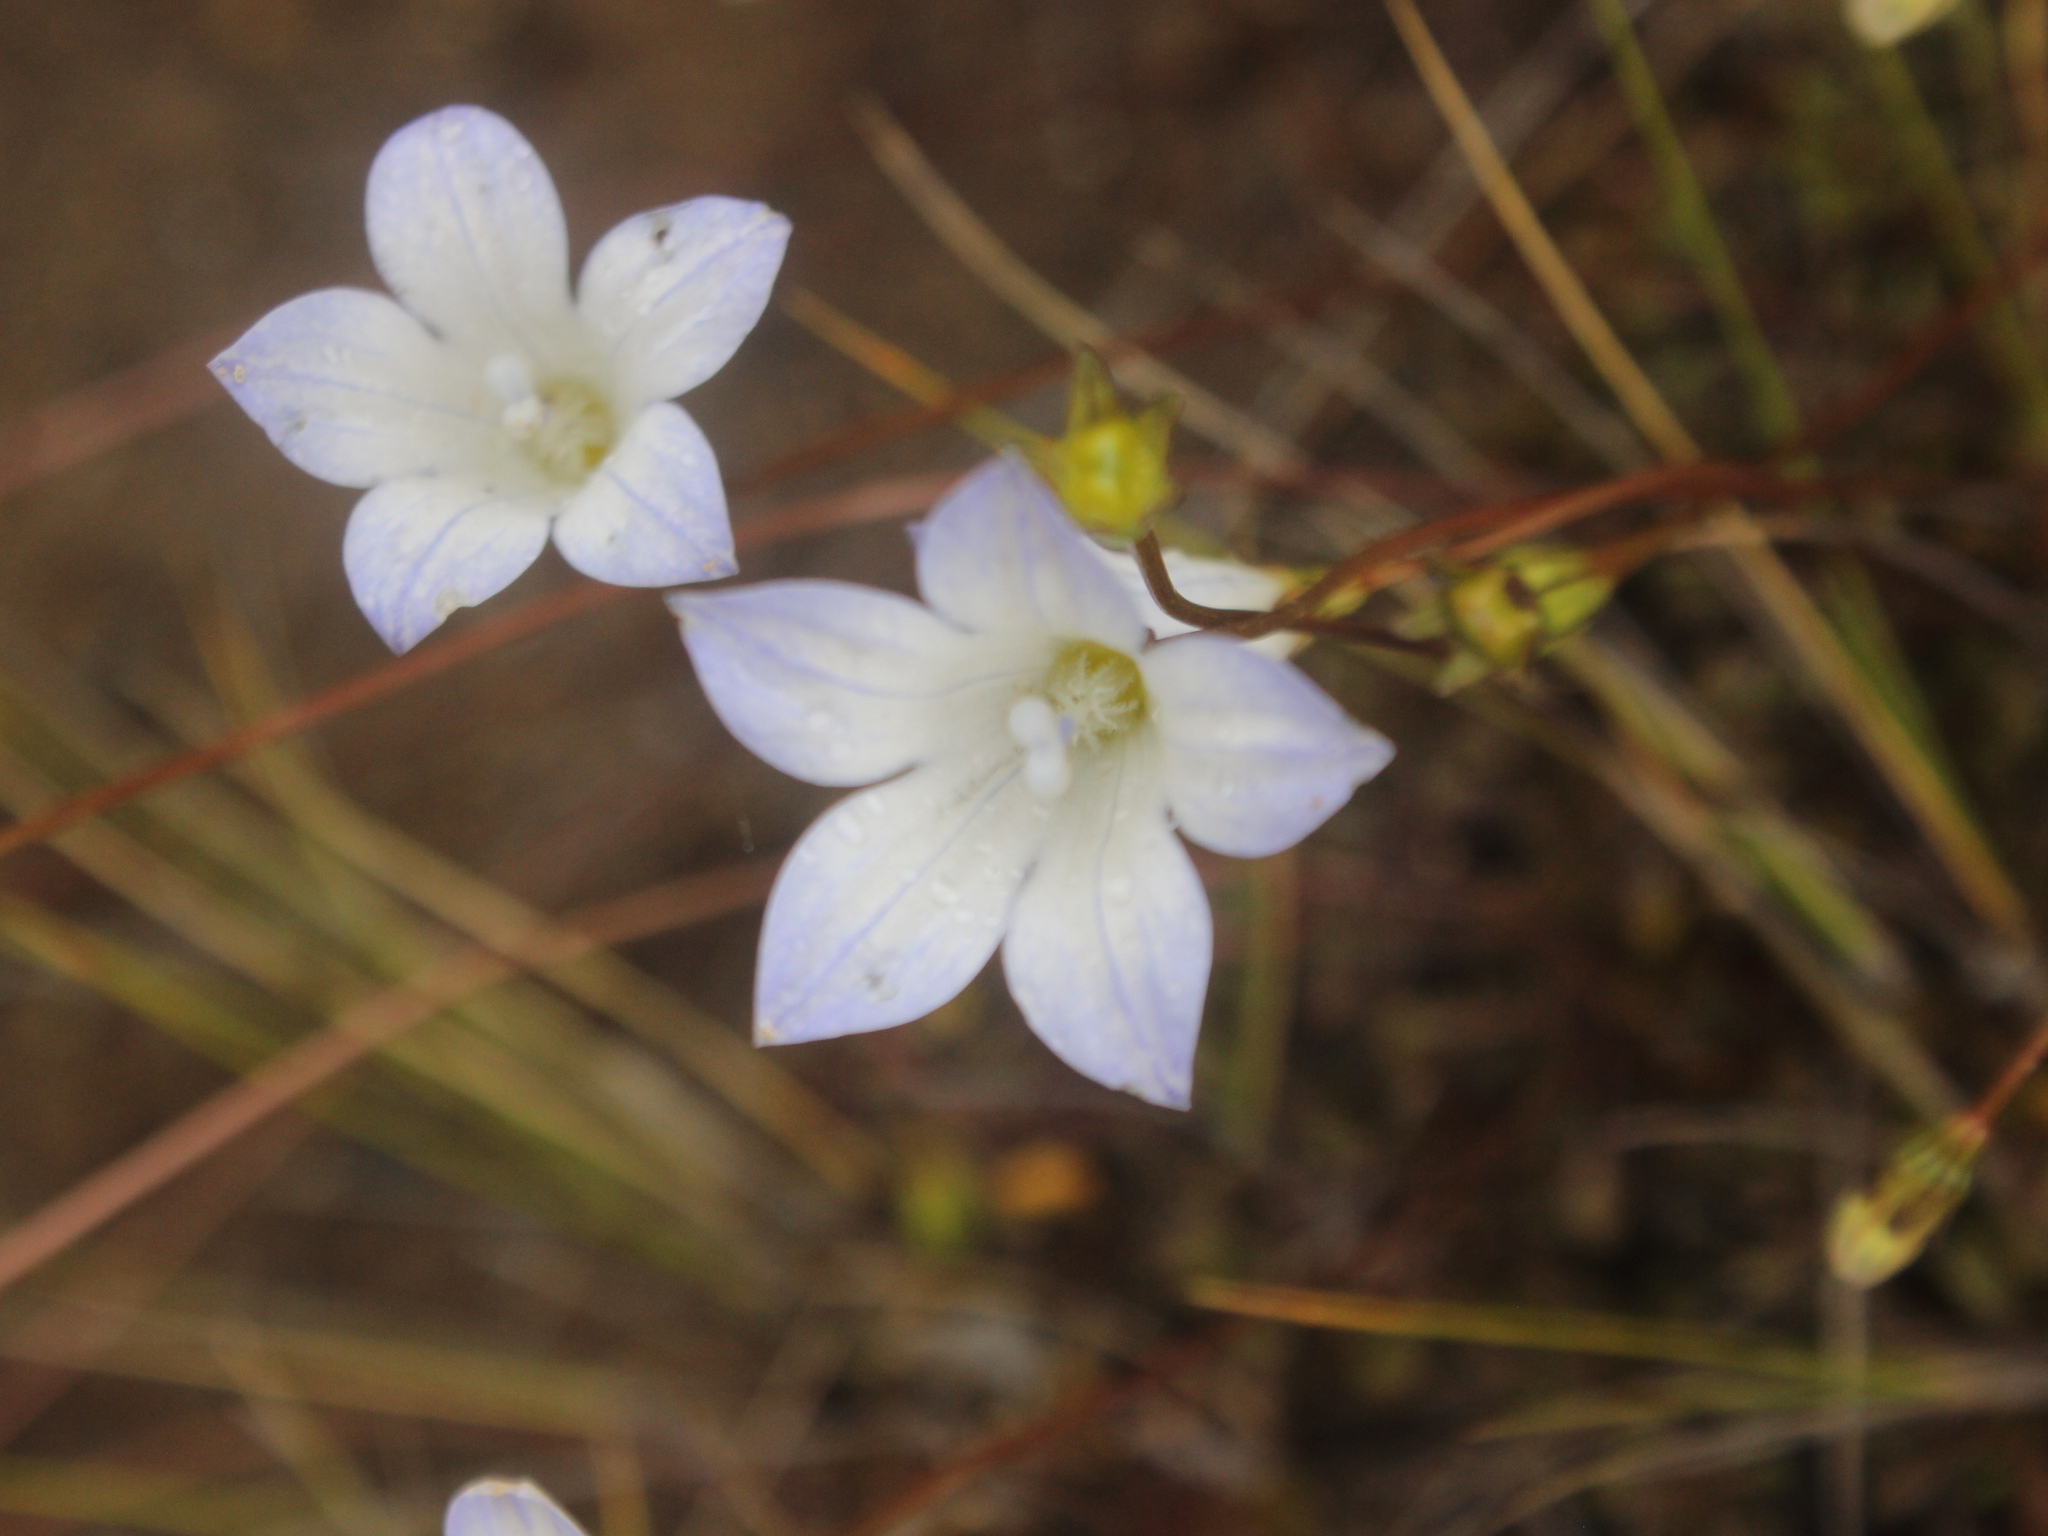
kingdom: Plantae
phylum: Tracheophyta
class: Magnoliopsida
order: Asterales
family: Campanulaceae
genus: Wahlenbergia
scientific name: Wahlenbergia pygmaea
